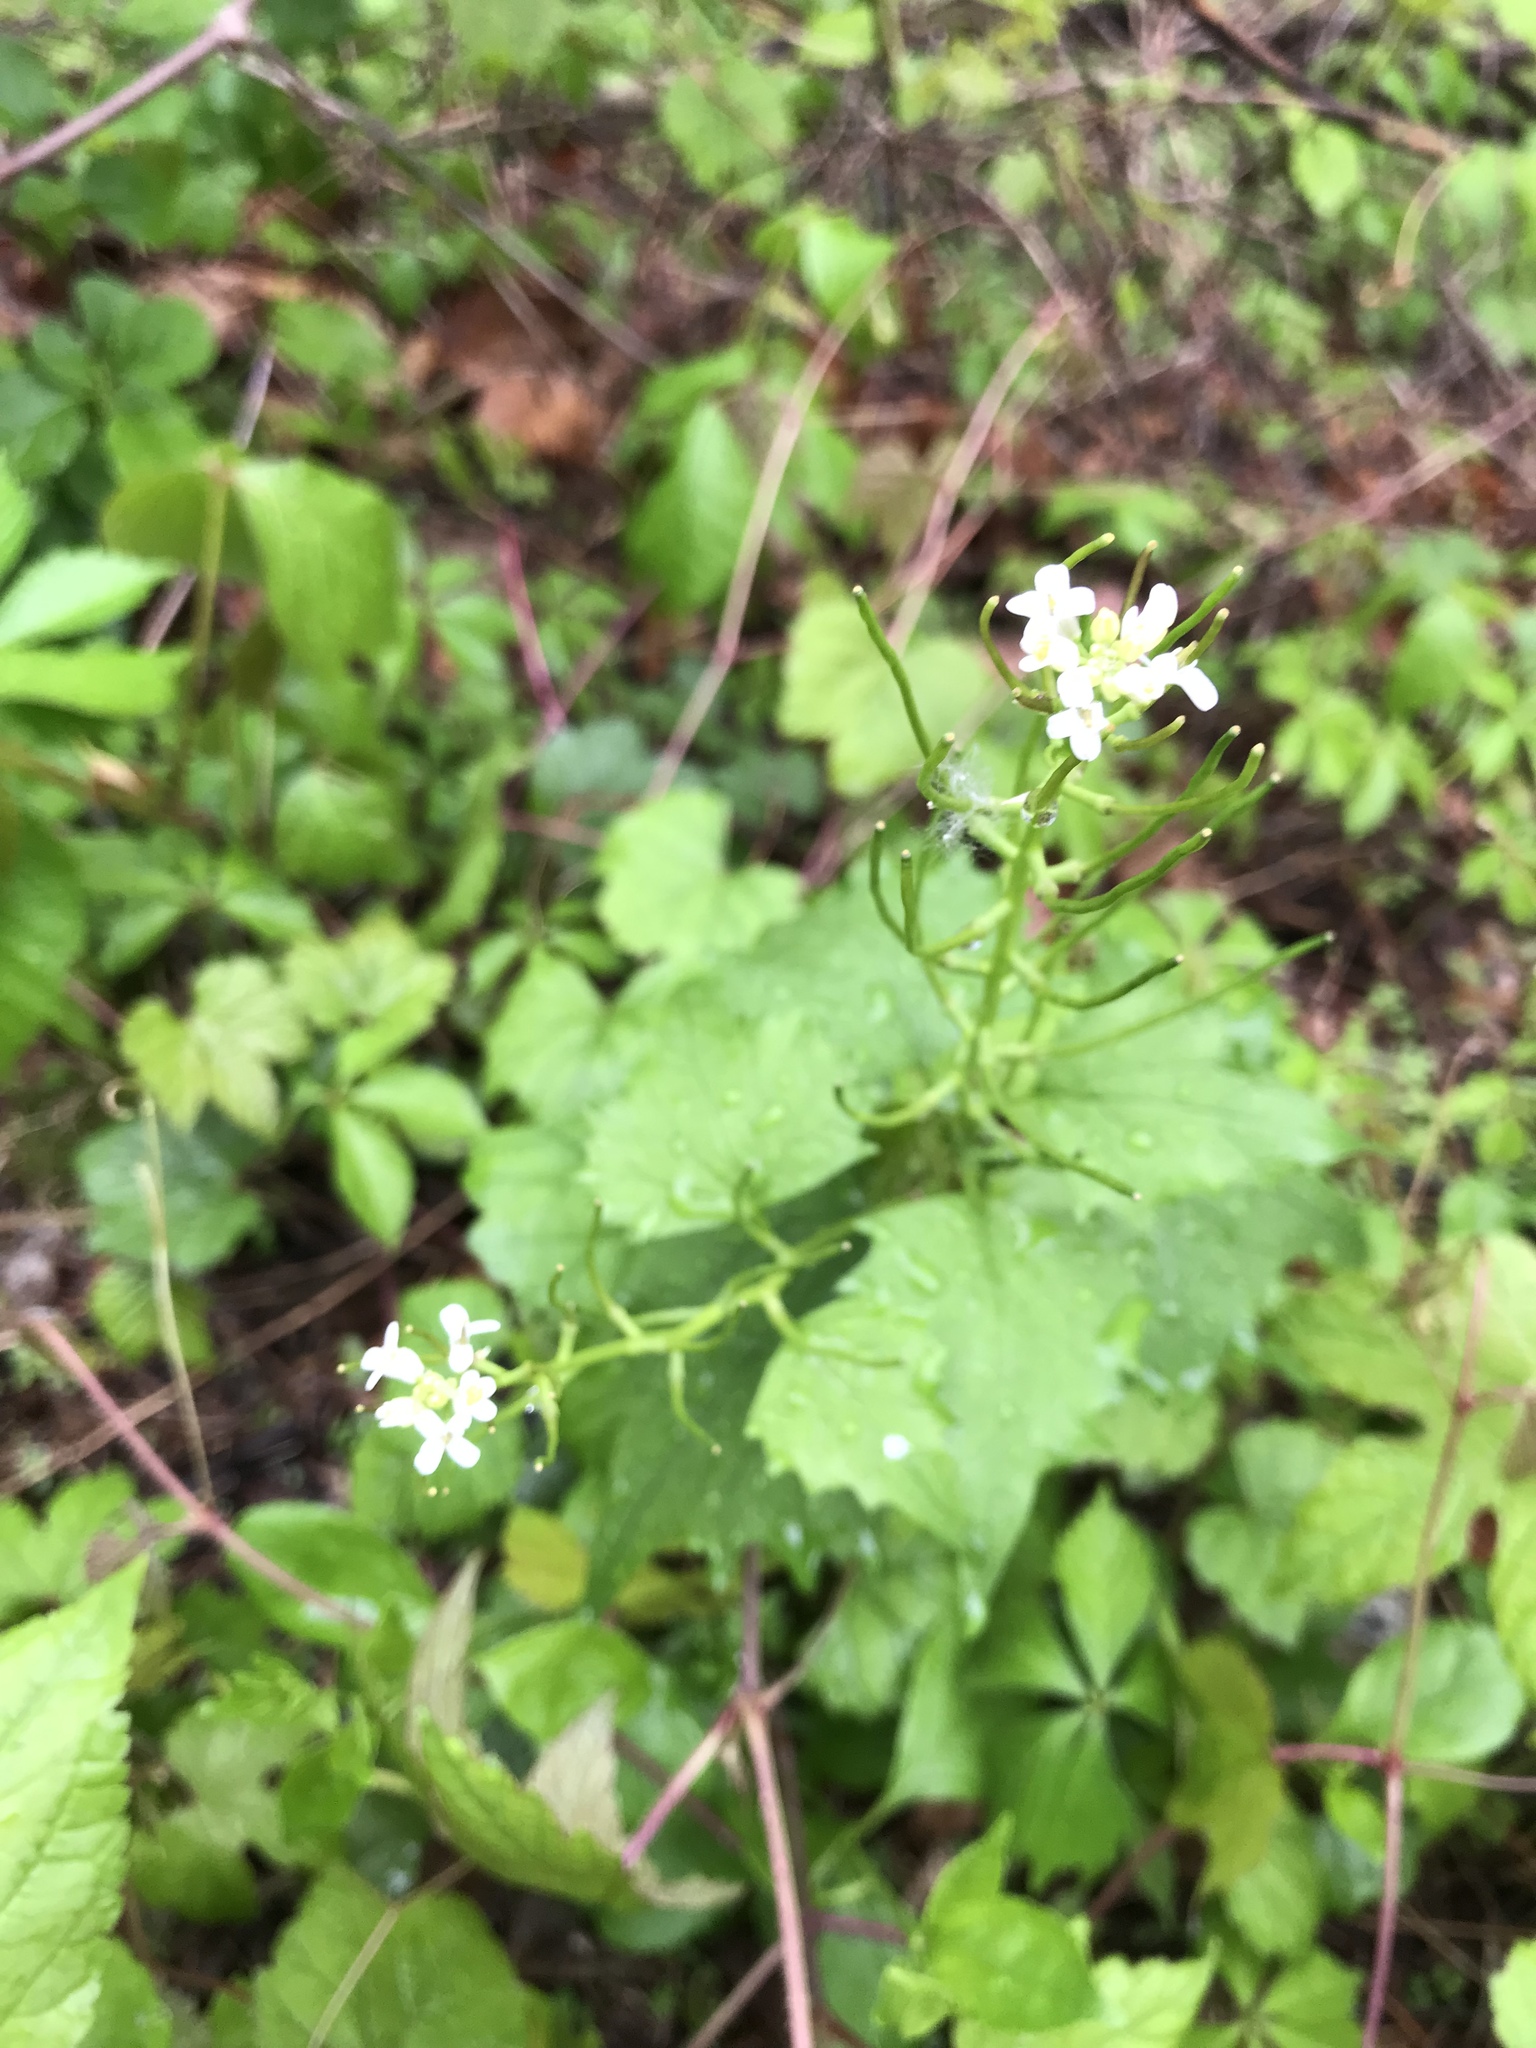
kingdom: Plantae
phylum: Tracheophyta
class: Magnoliopsida
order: Brassicales
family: Brassicaceae
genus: Alliaria
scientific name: Alliaria petiolata
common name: Garlic mustard
